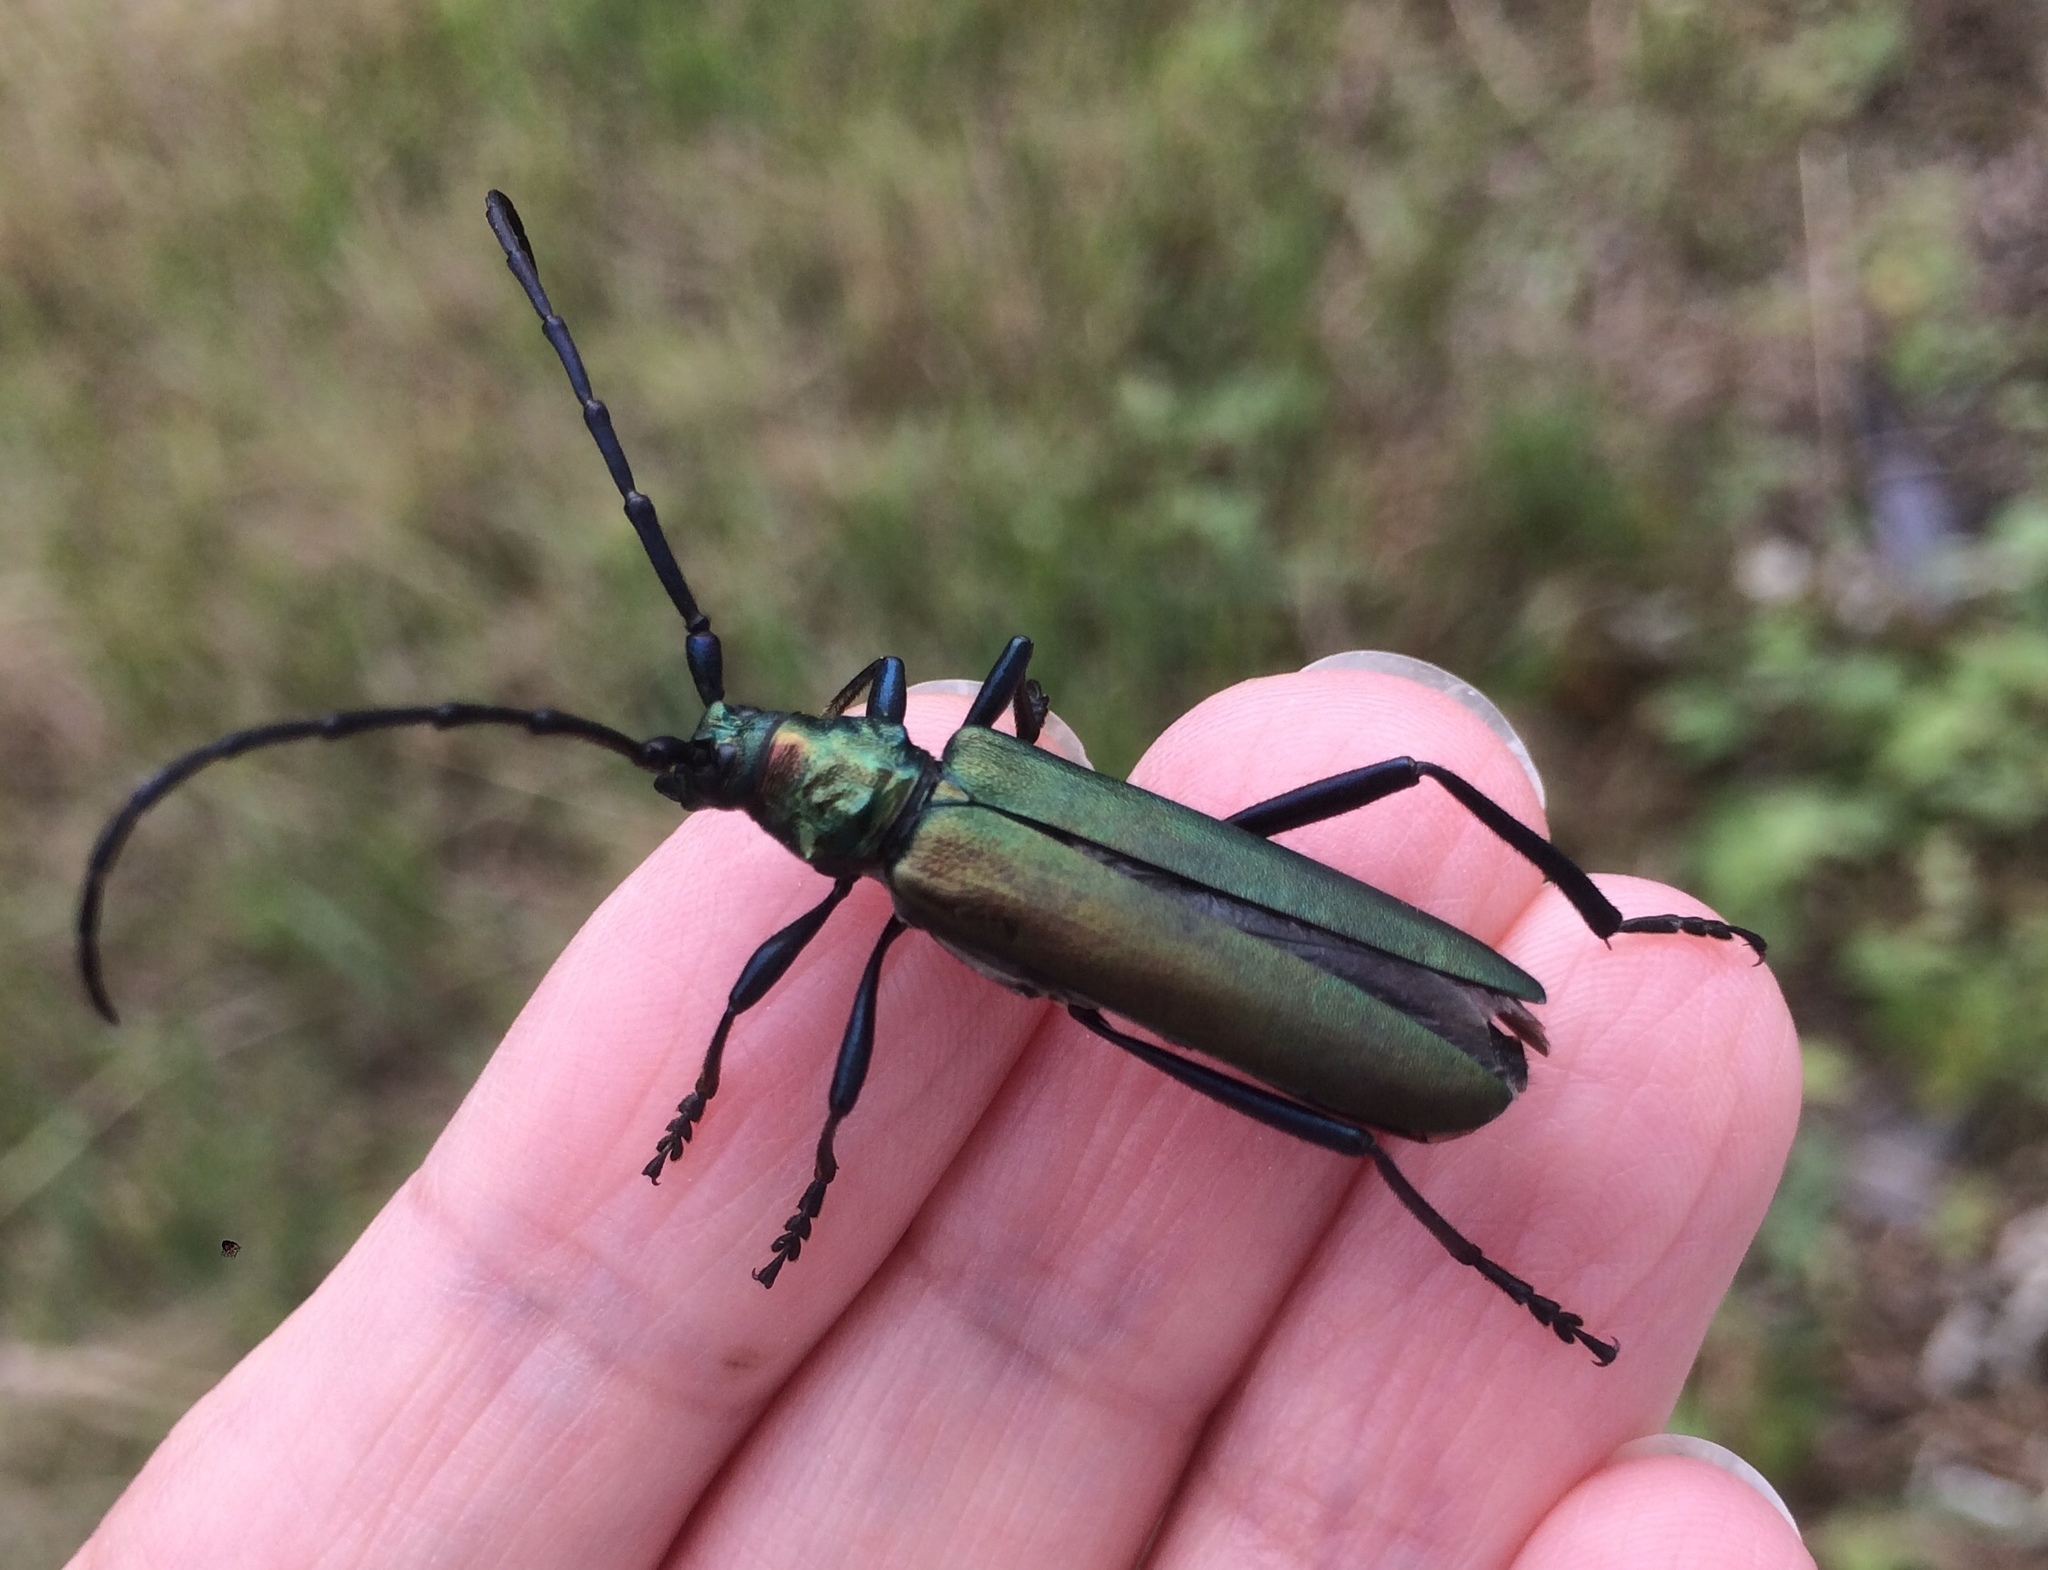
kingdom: Animalia
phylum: Arthropoda
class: Insecta
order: Coleoptera
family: Cerambycidae
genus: Aromia
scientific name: Aromia moschata
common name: Musk beetle
